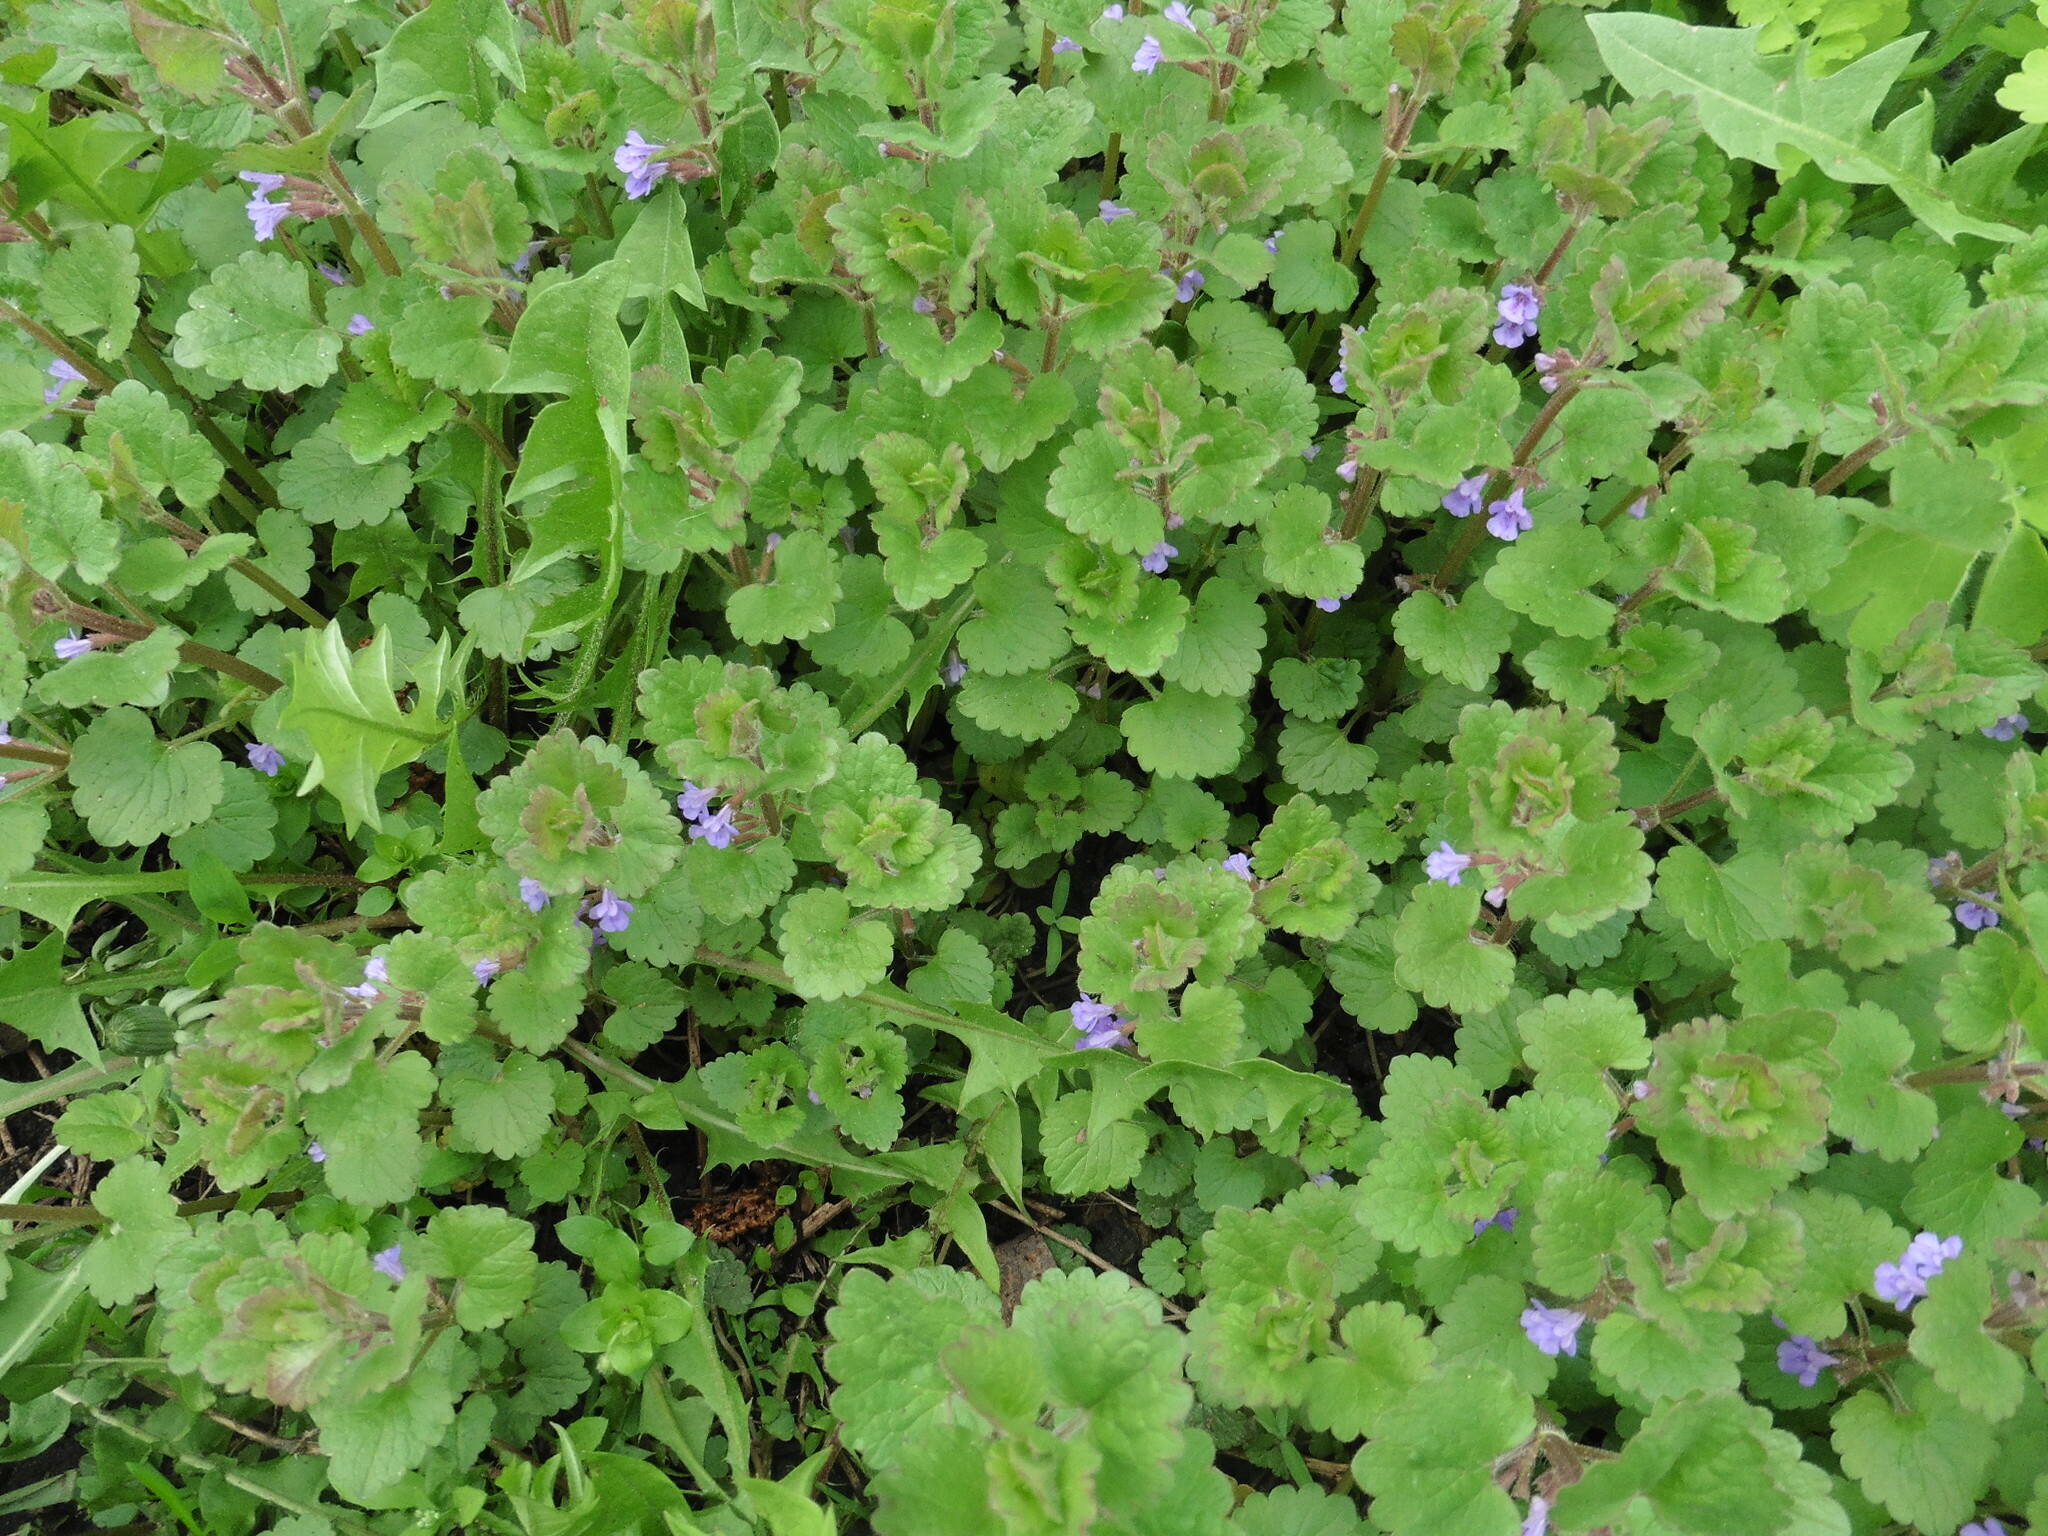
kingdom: Plantae
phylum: Tracheophyta
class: Magnoliopsida
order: Lamiales
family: Lamiaceae
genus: Glechoma
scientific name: Glechoma hederacea
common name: Ground ivy
